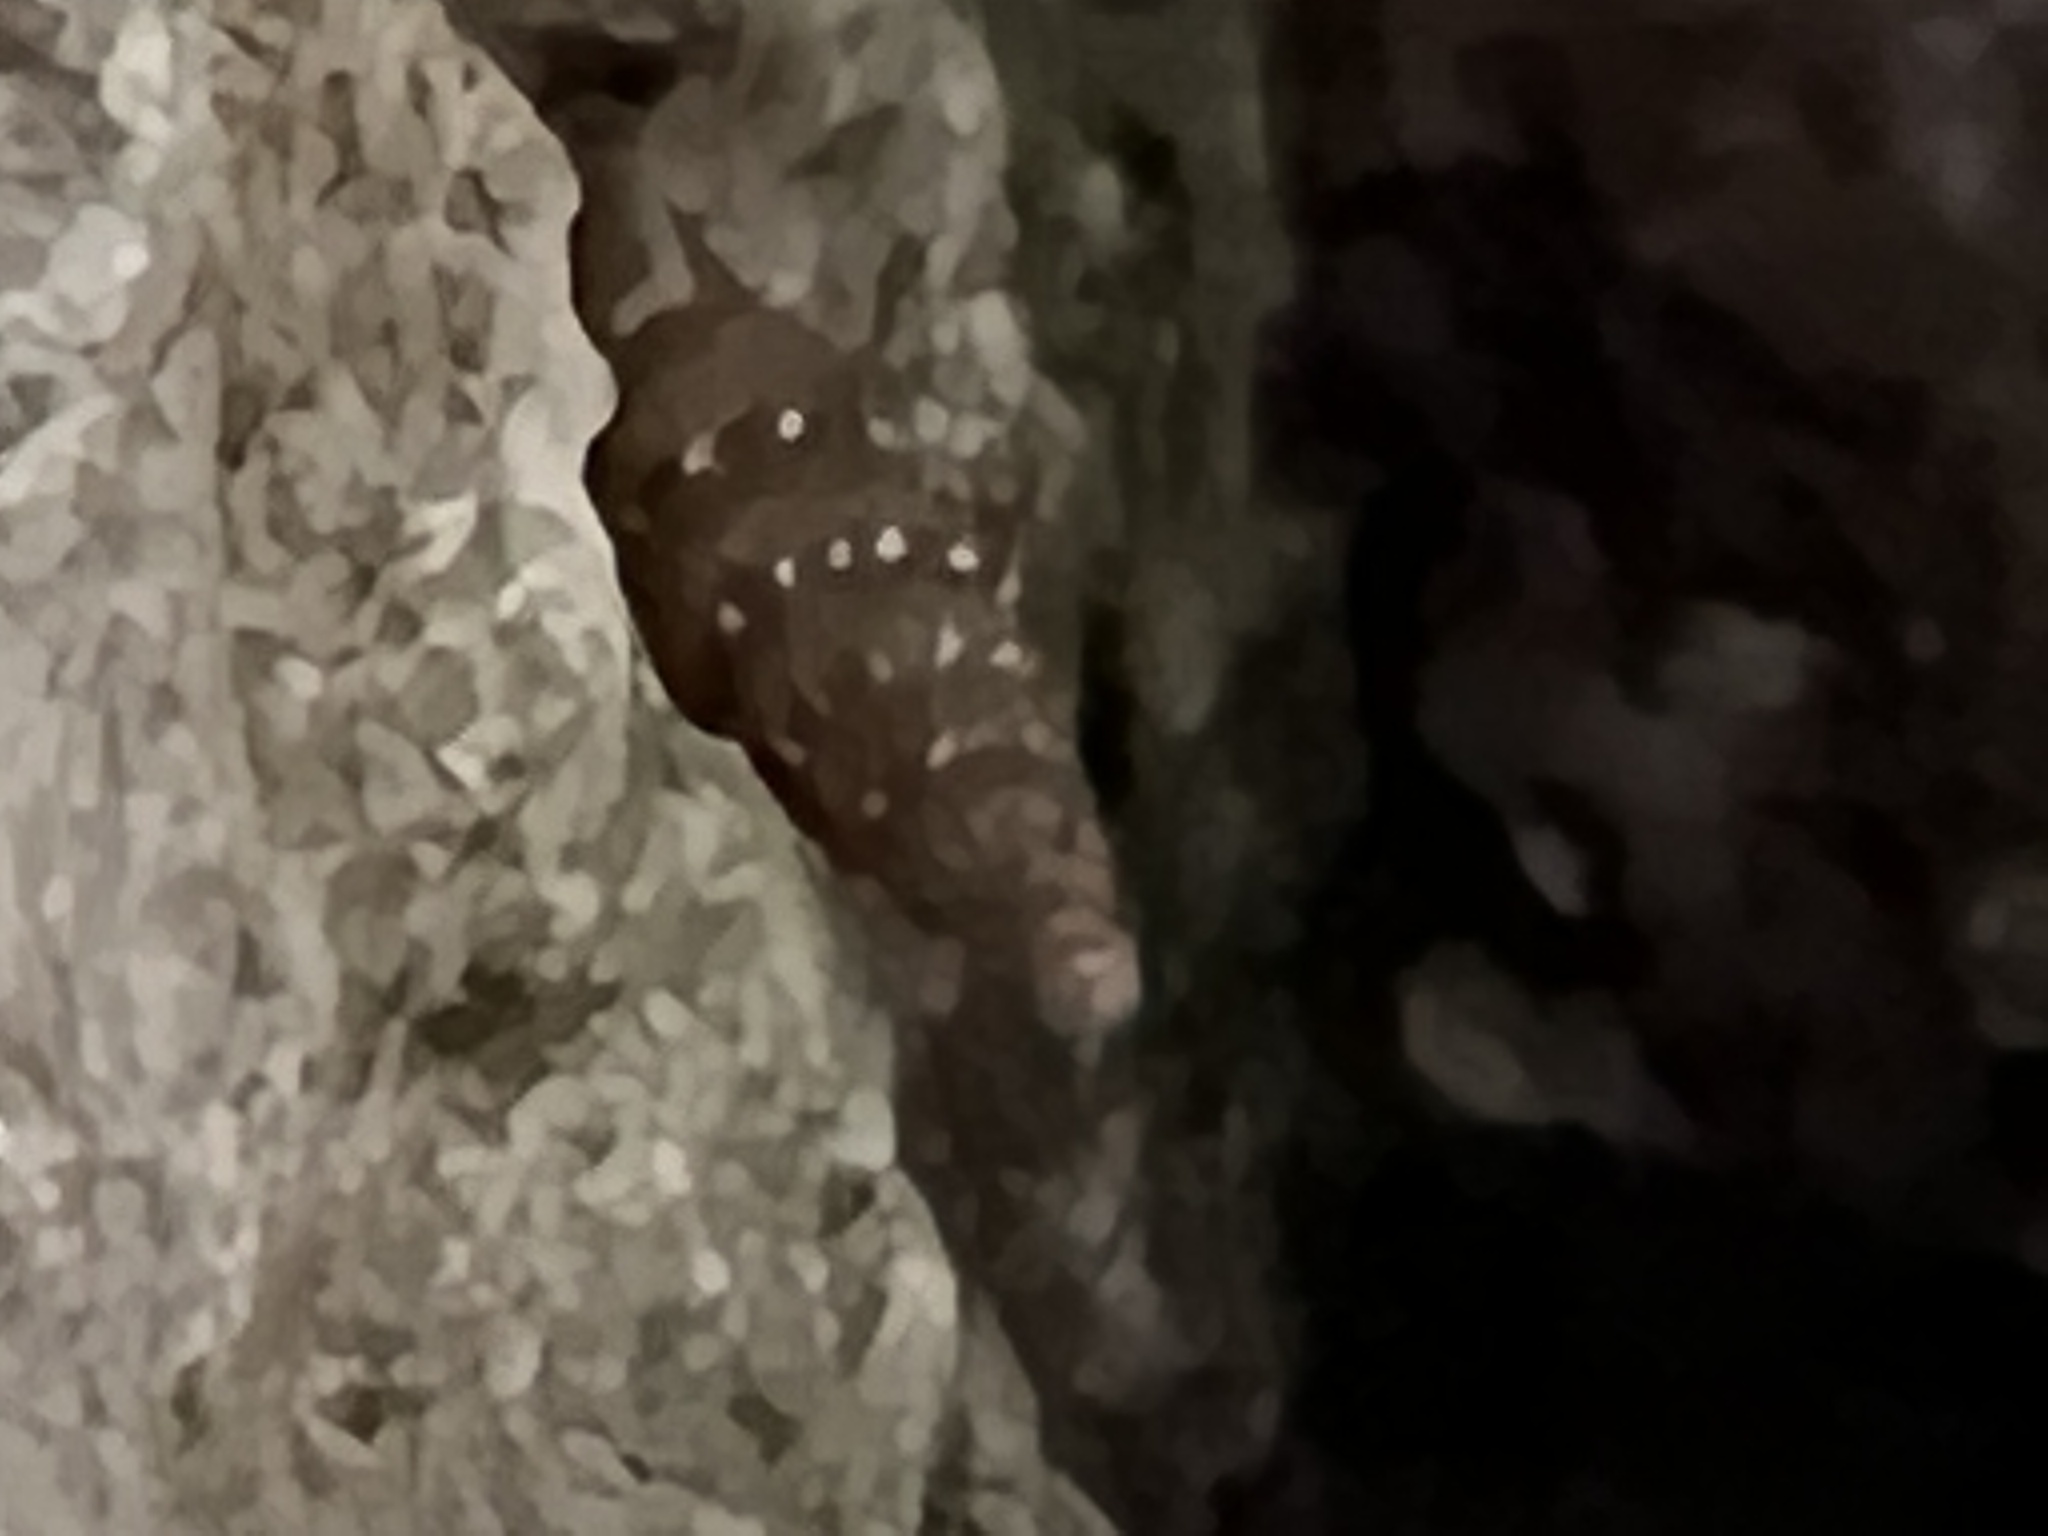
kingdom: Animalia
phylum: Mollusca
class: Gastropoda
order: Stylommatophora
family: Clausiliidae
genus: Papillifera
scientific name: Papillifera papillaris
